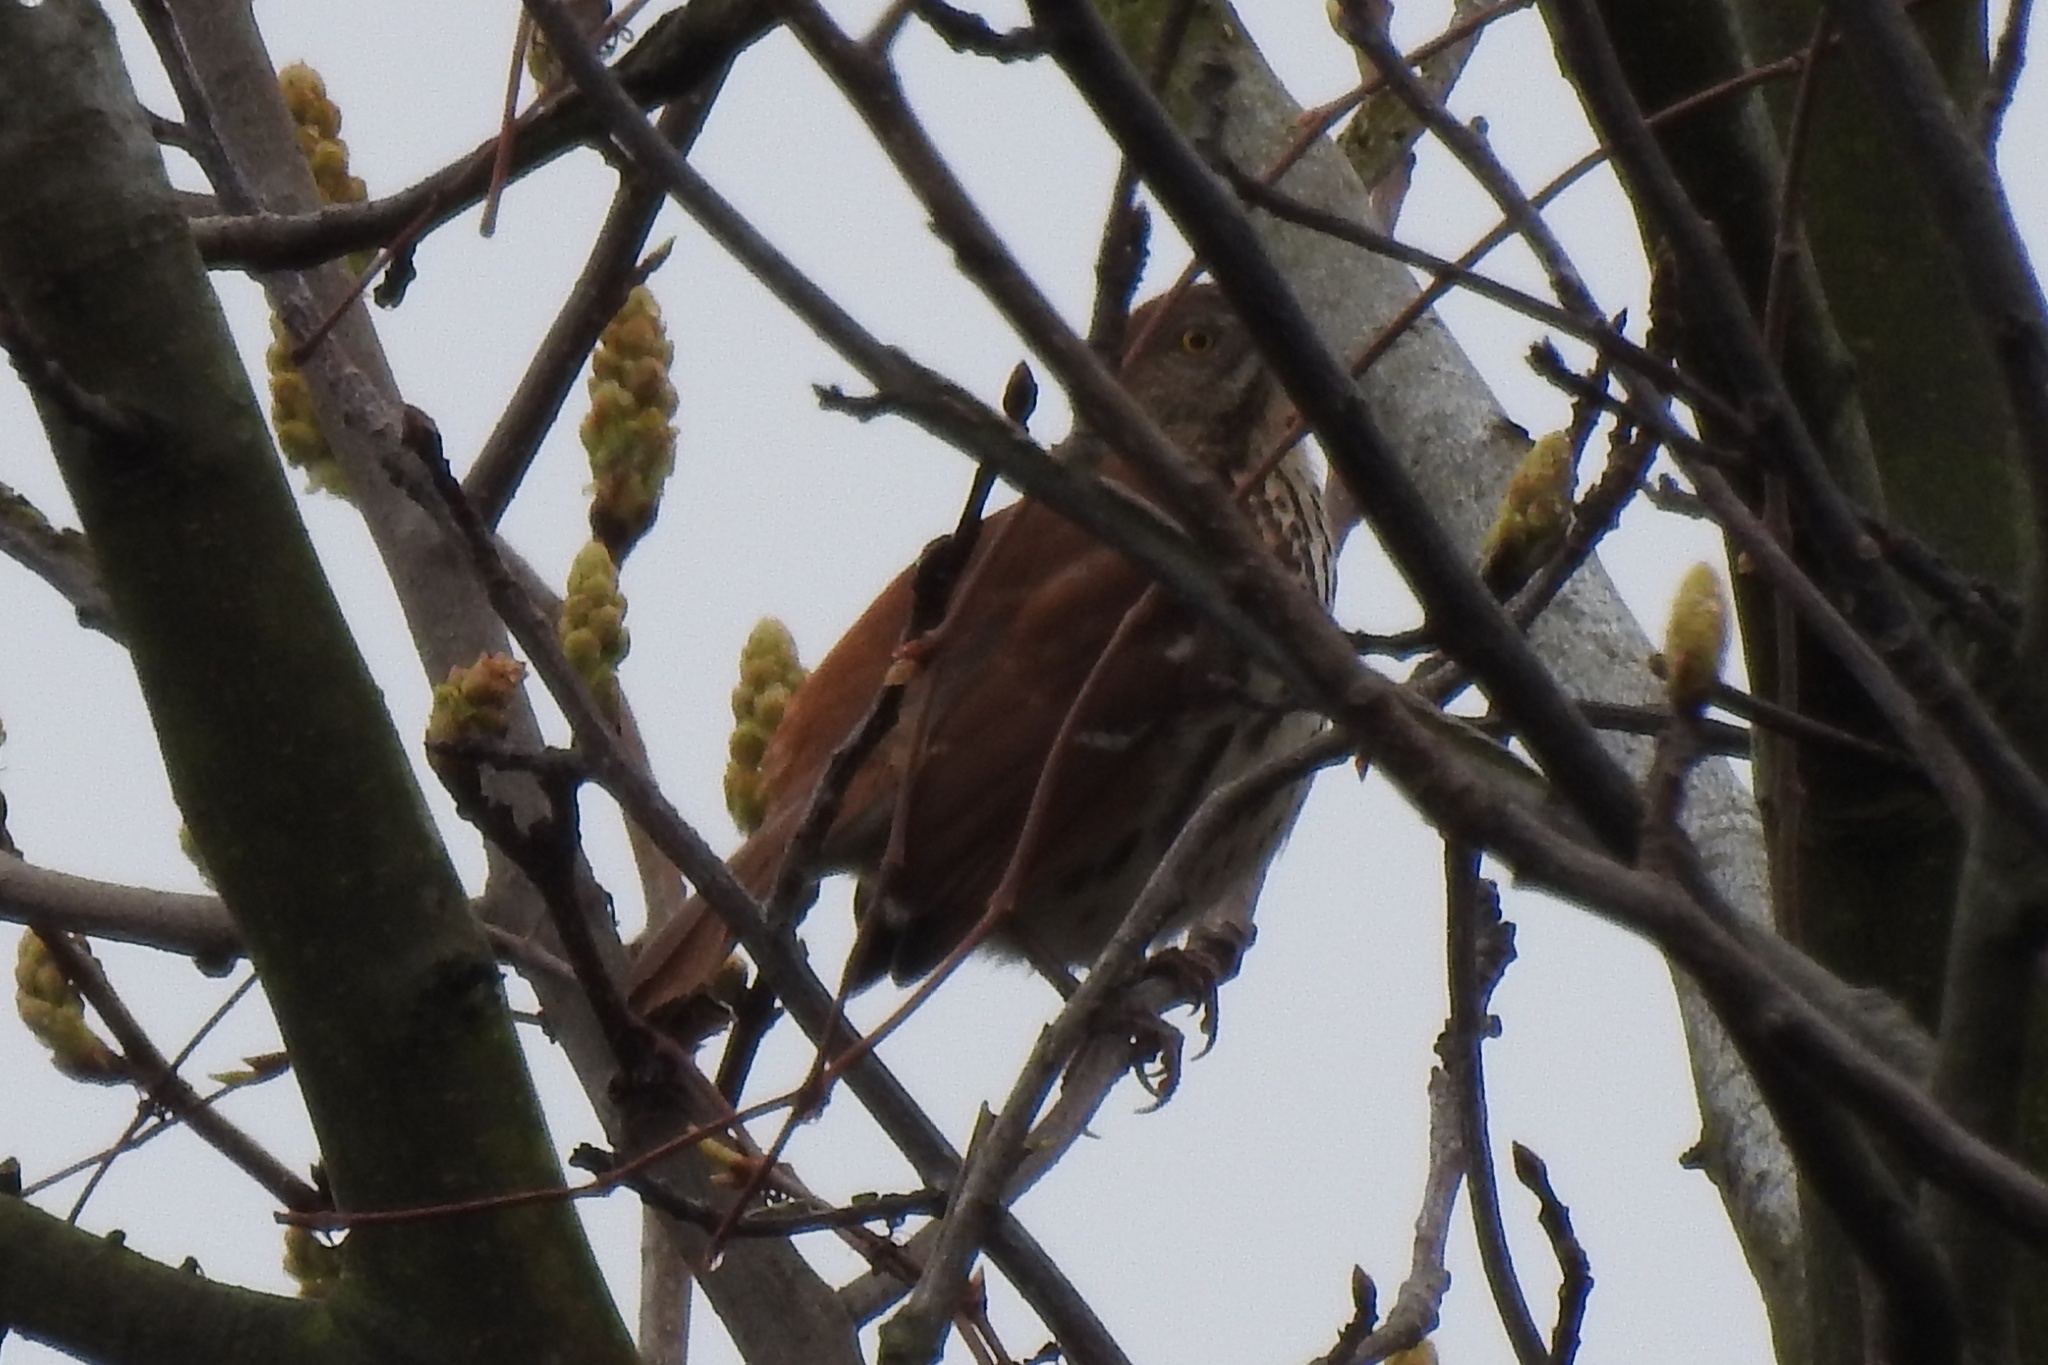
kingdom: Animalia
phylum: Chordata
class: Aves
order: Passeriformes
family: Mimidae
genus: Toxostoma
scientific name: Toxostoma rufum
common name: Brown thrasher
